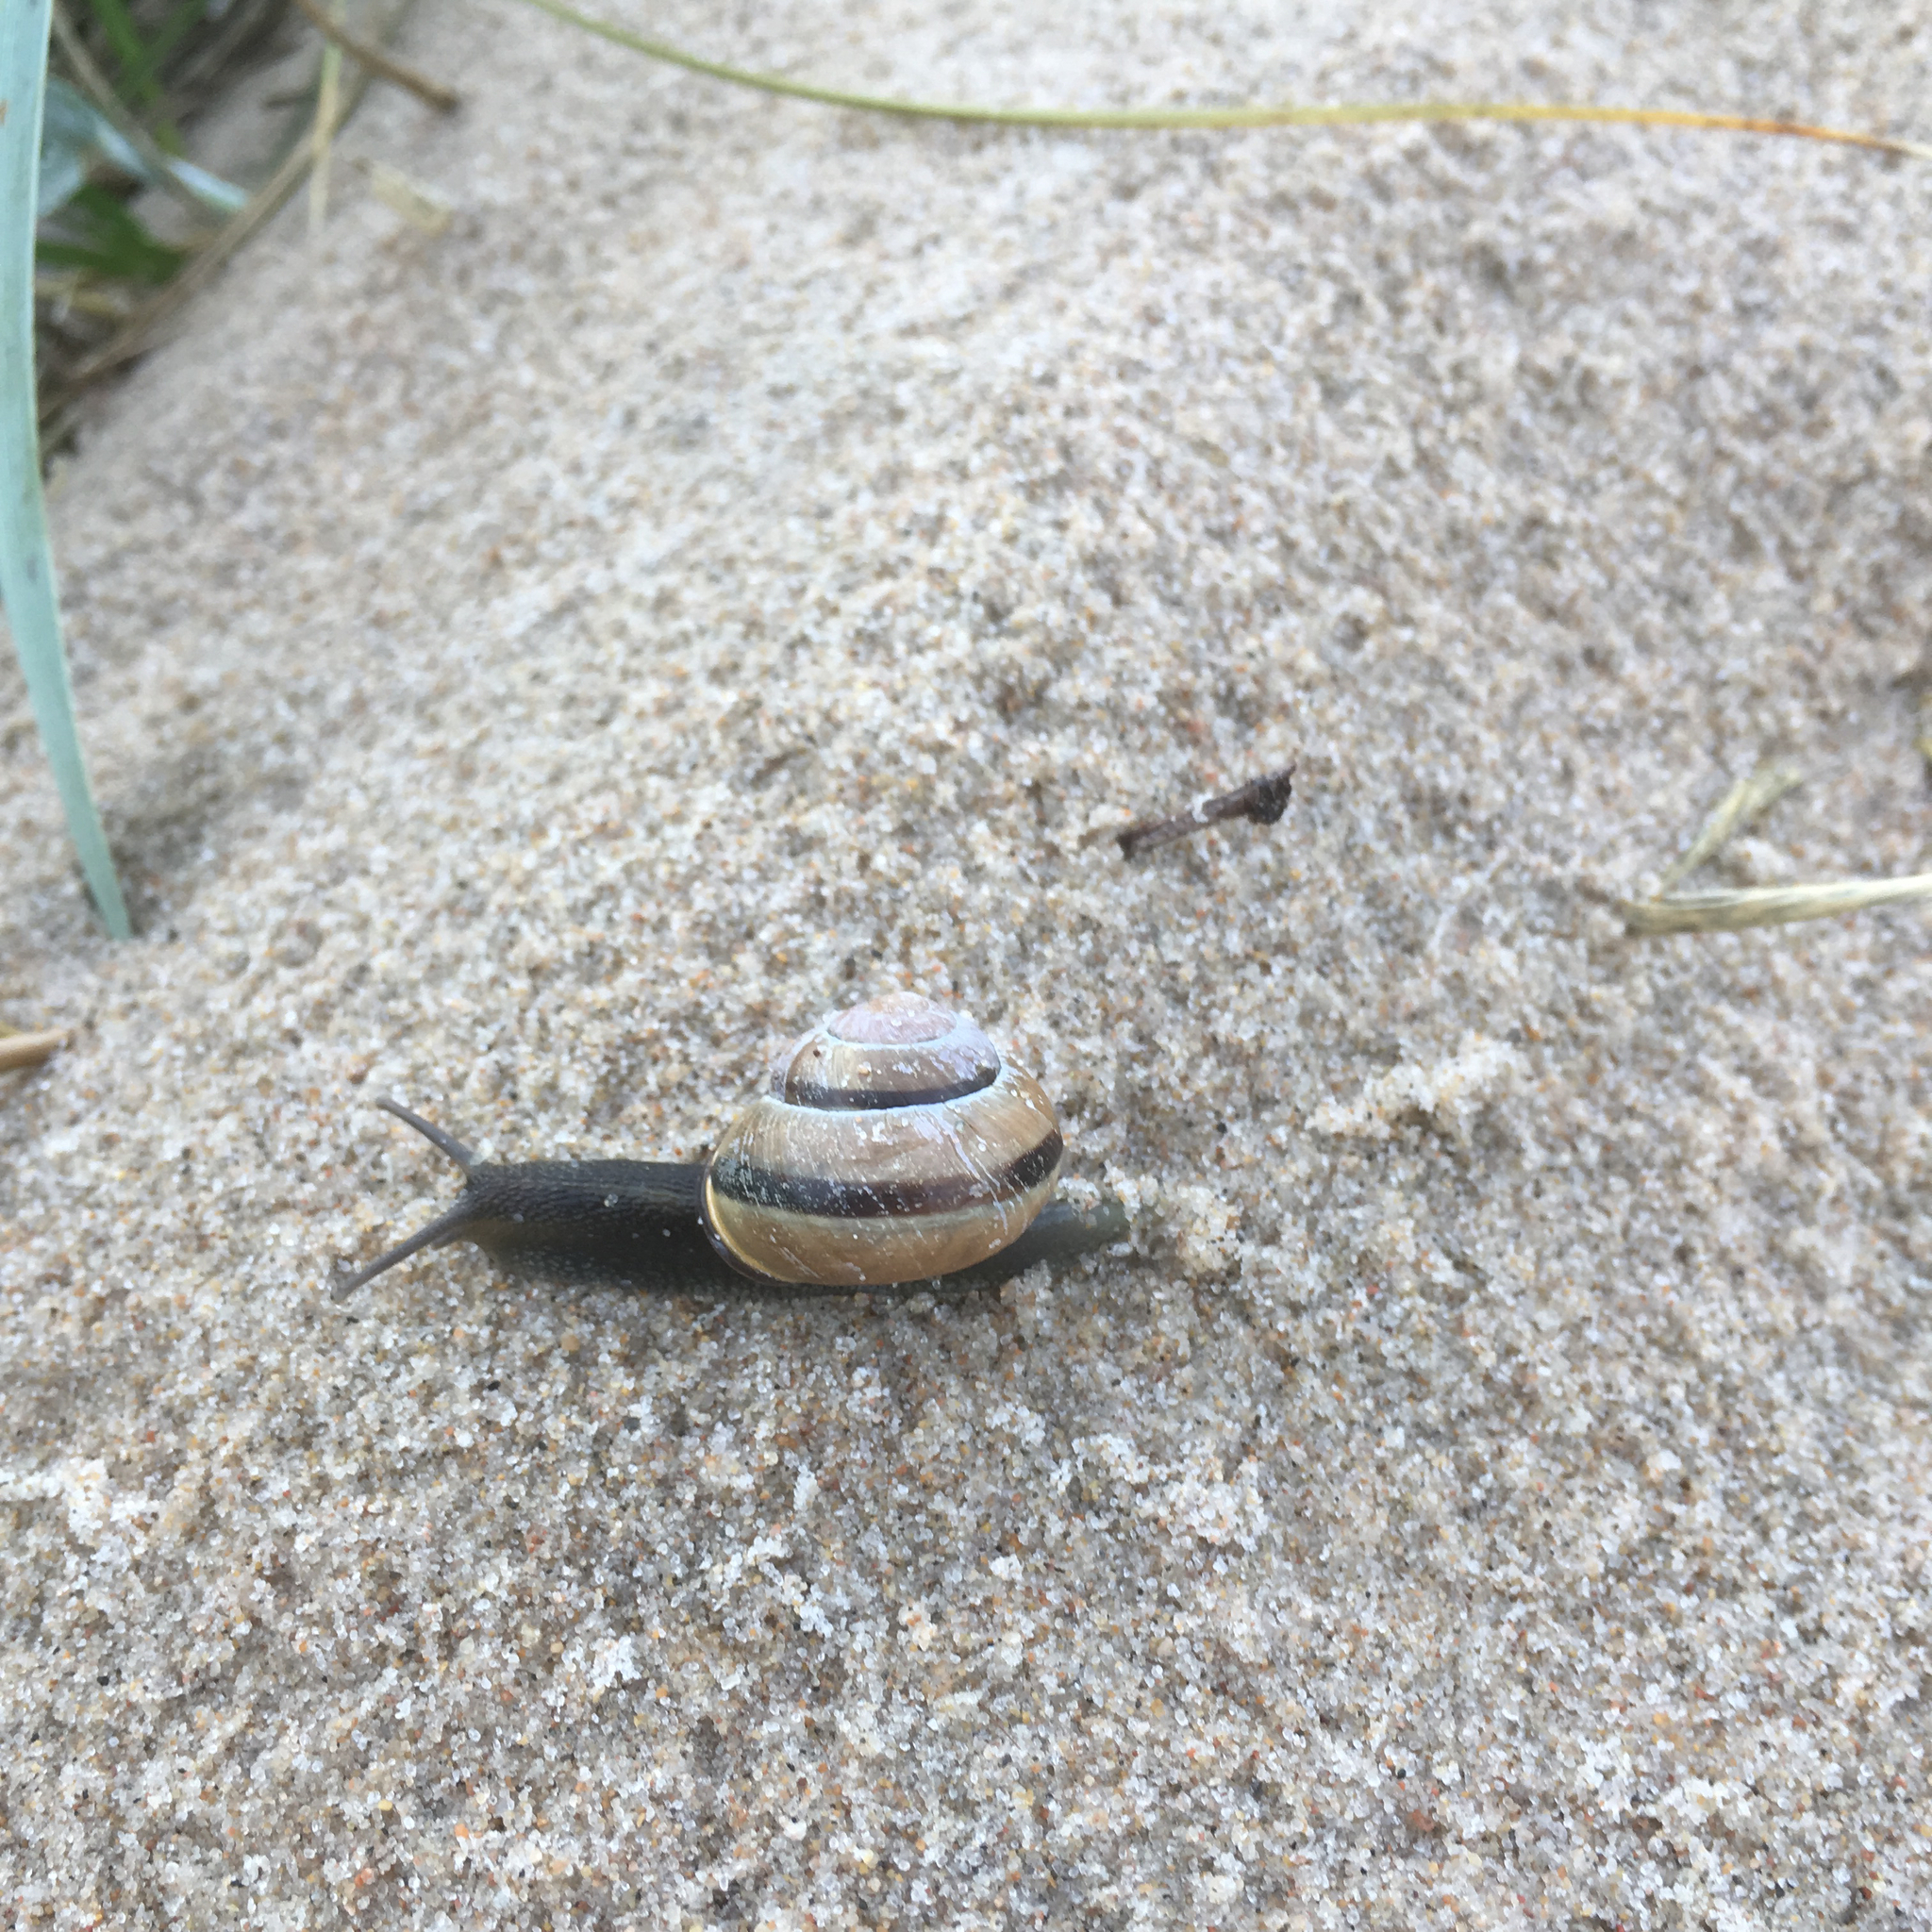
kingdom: Animalia
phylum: Mollusca
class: Gastropoda
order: Stylommatophora
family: Helicidae
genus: Cepaea
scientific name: Cepaea nemoralis
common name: Grovesnail
